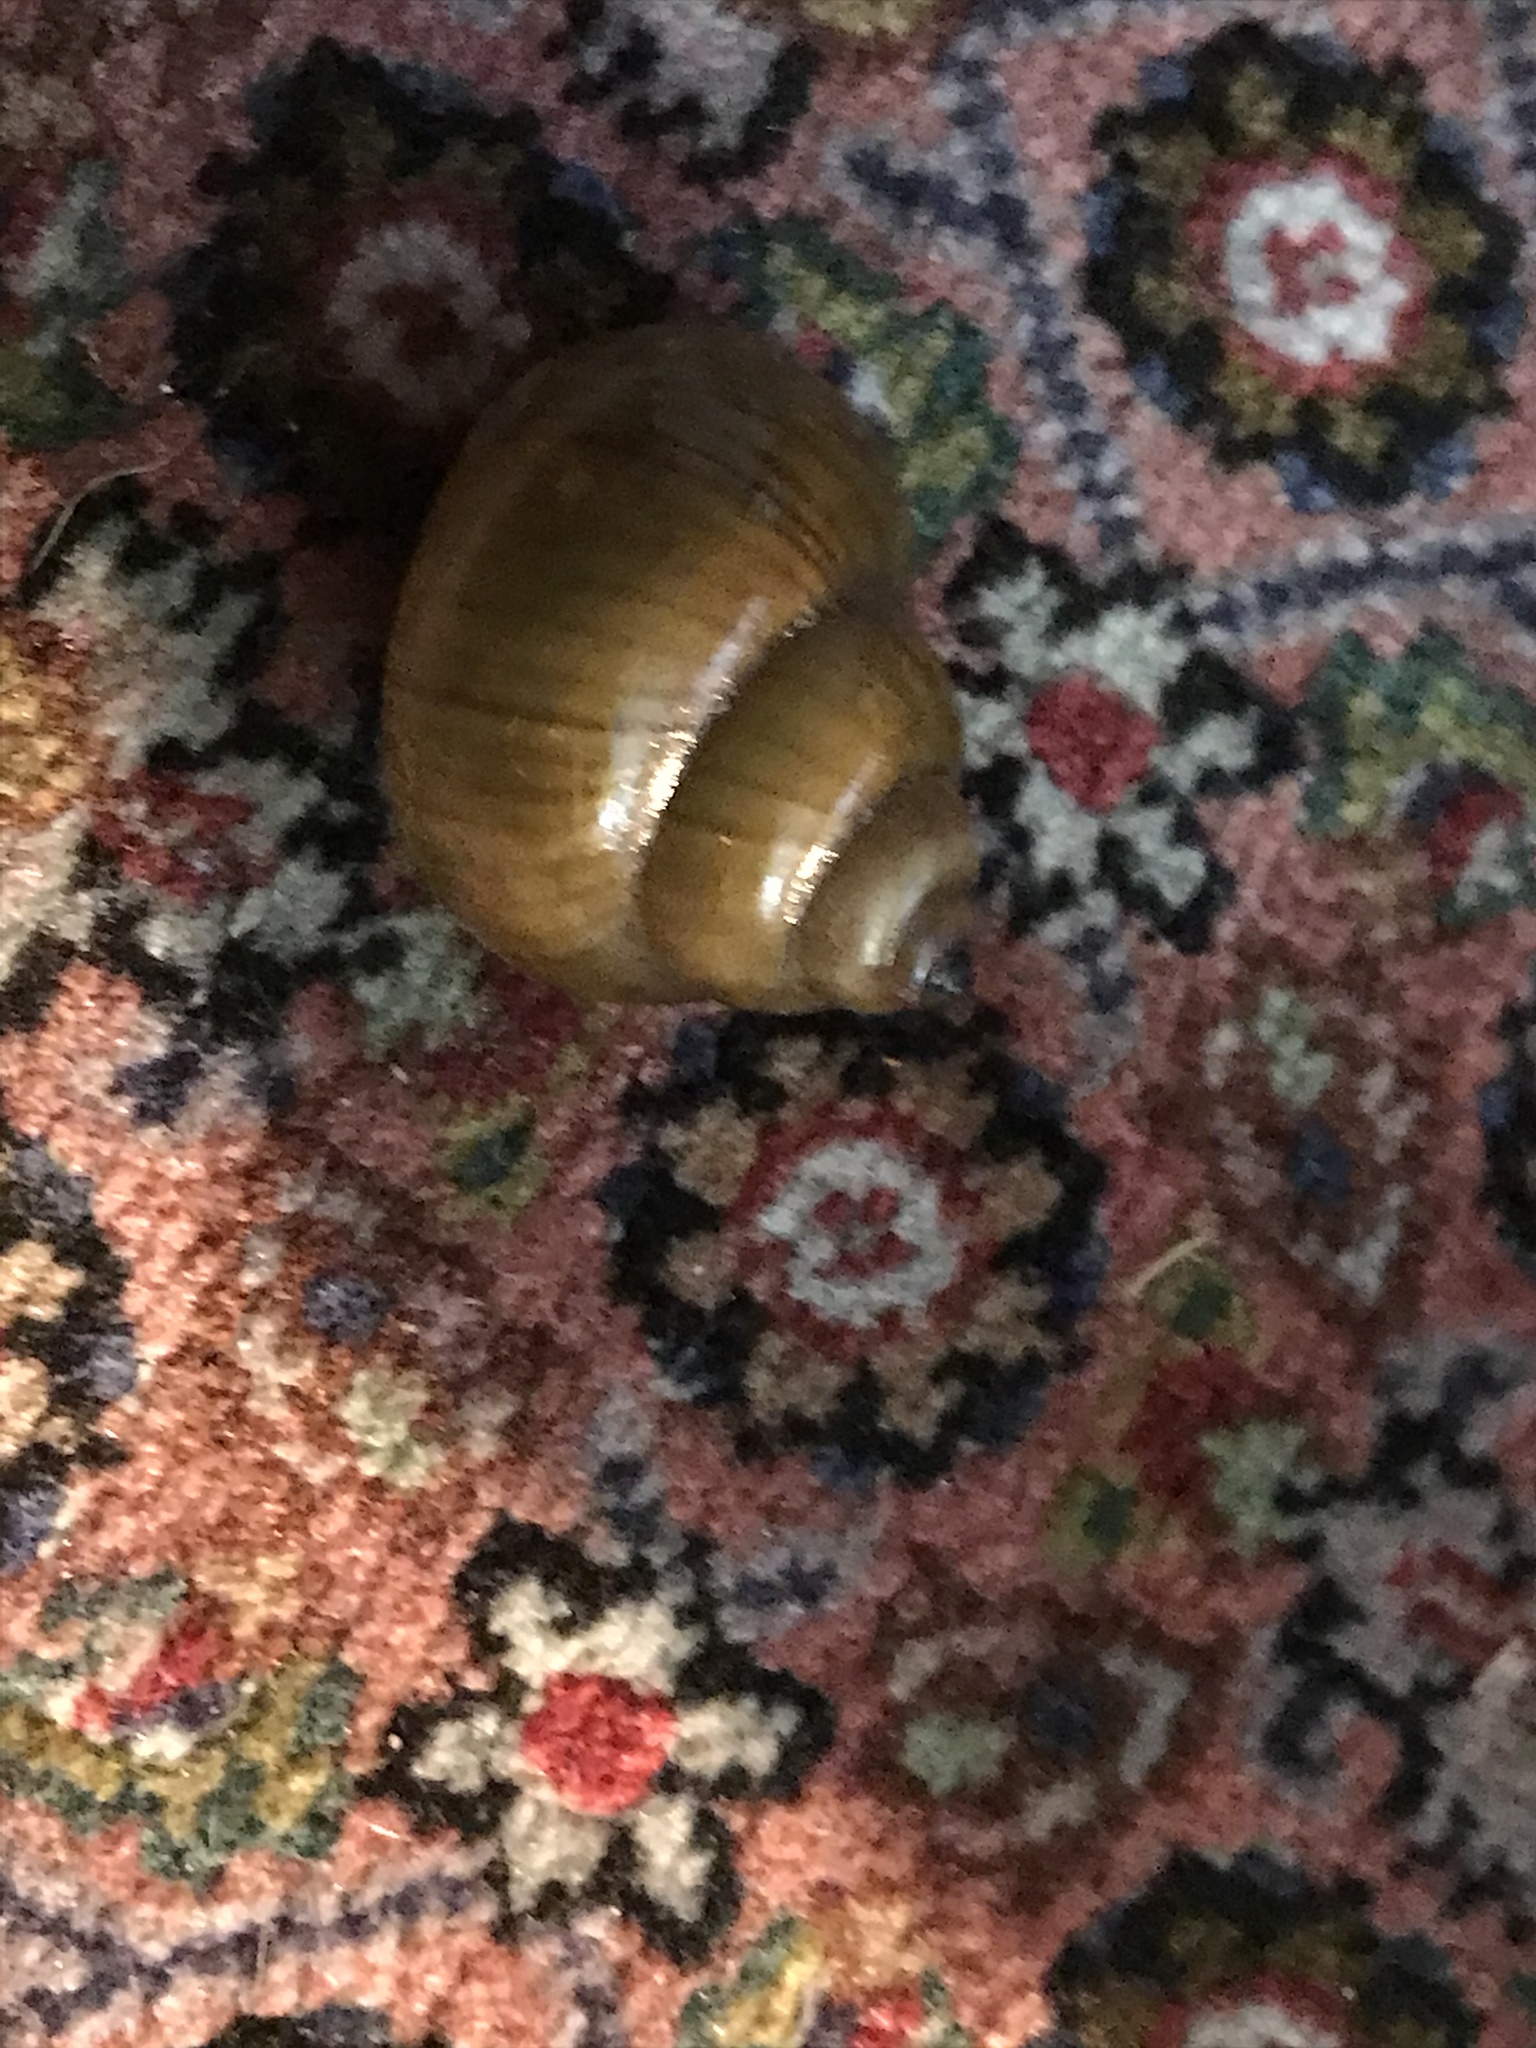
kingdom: Animalia
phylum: Mollusca
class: Gastropoda
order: Architaenioglossa
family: Viviparidae
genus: Cipangopaludina
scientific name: Cipangopaludina chinensis
